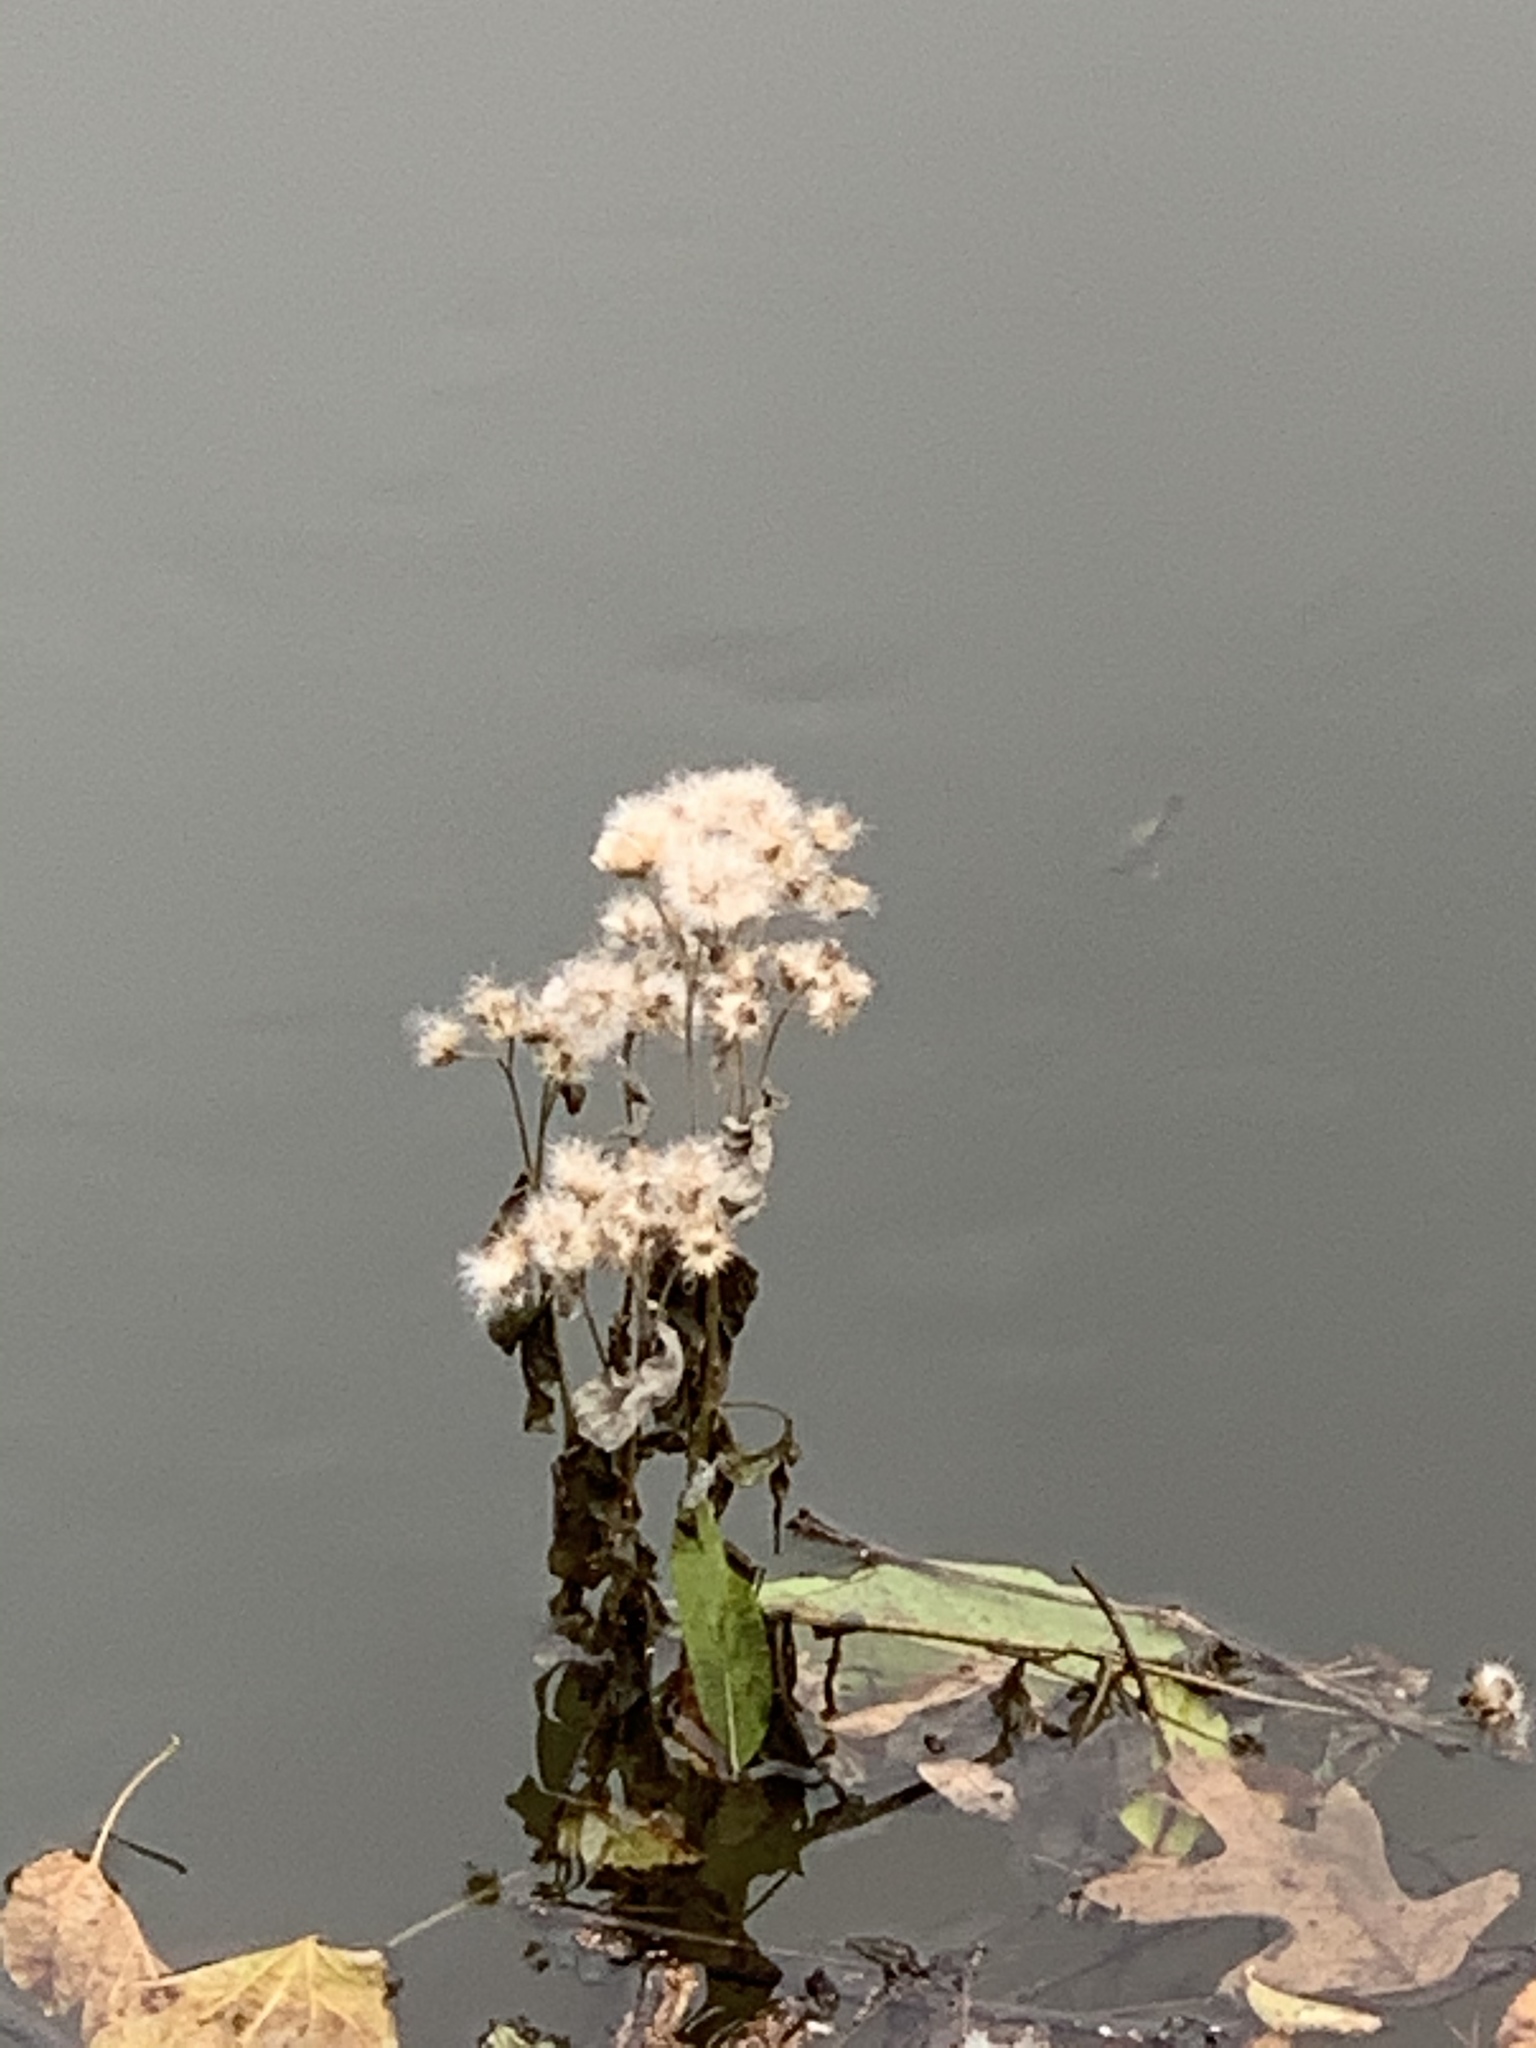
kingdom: Plantae
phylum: Tracheophyta
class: Magnoliopsida
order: Asterales
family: Asteraceae
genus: Pluchea
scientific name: Pluchea odorata
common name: Saltmarsh fleabane
